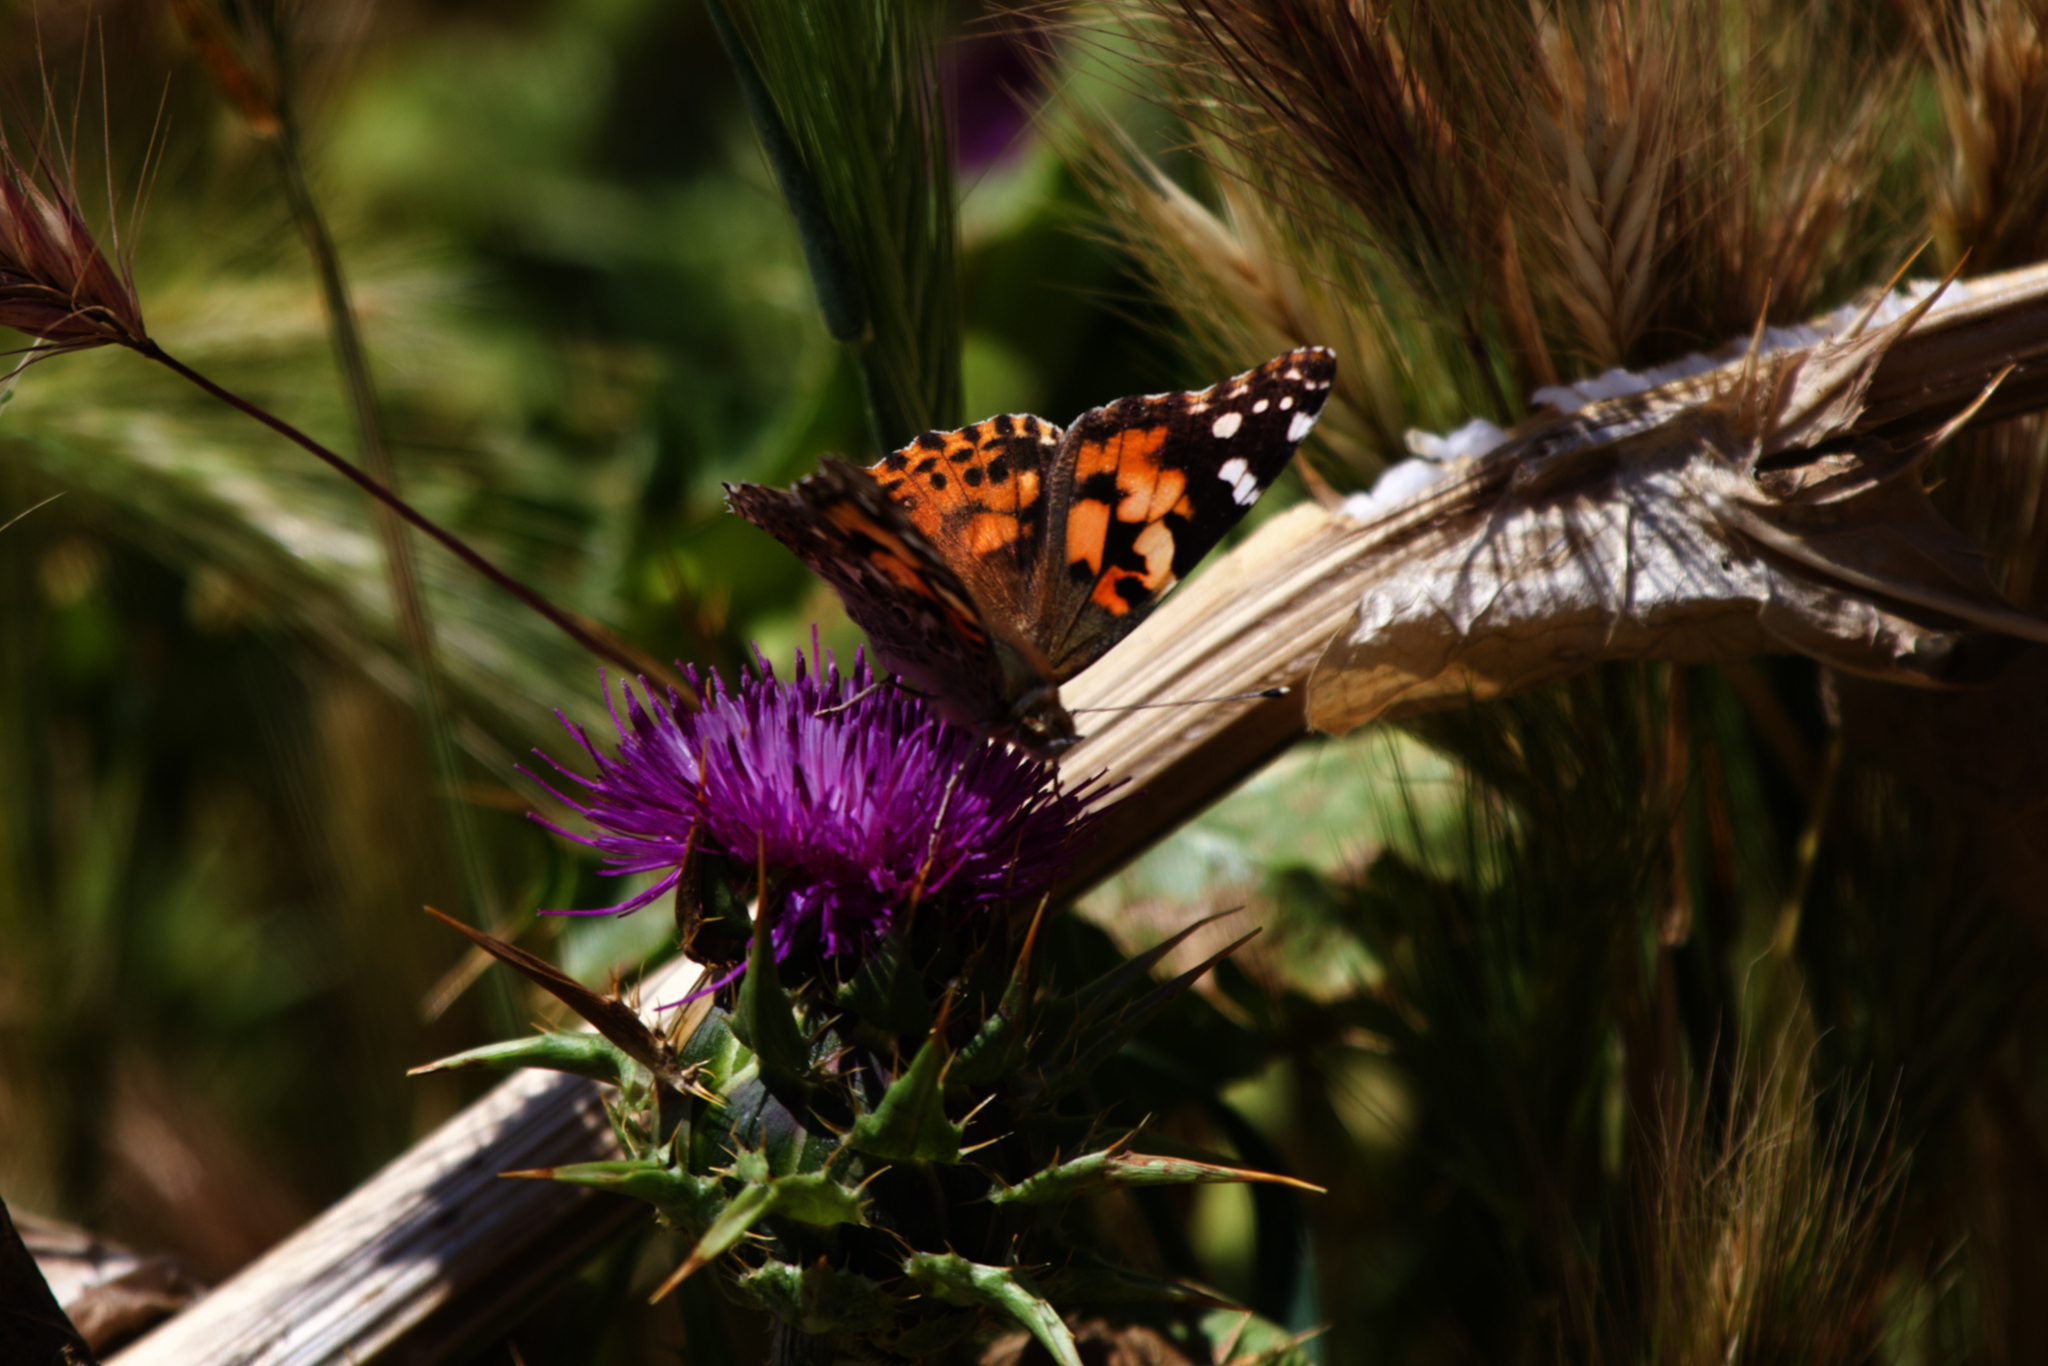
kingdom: Animalia
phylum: Arthropoda
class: Insecta
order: Lepidoptera
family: Nymphalidae
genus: Vanessa
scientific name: Vanessa cardui
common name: Painted lady
